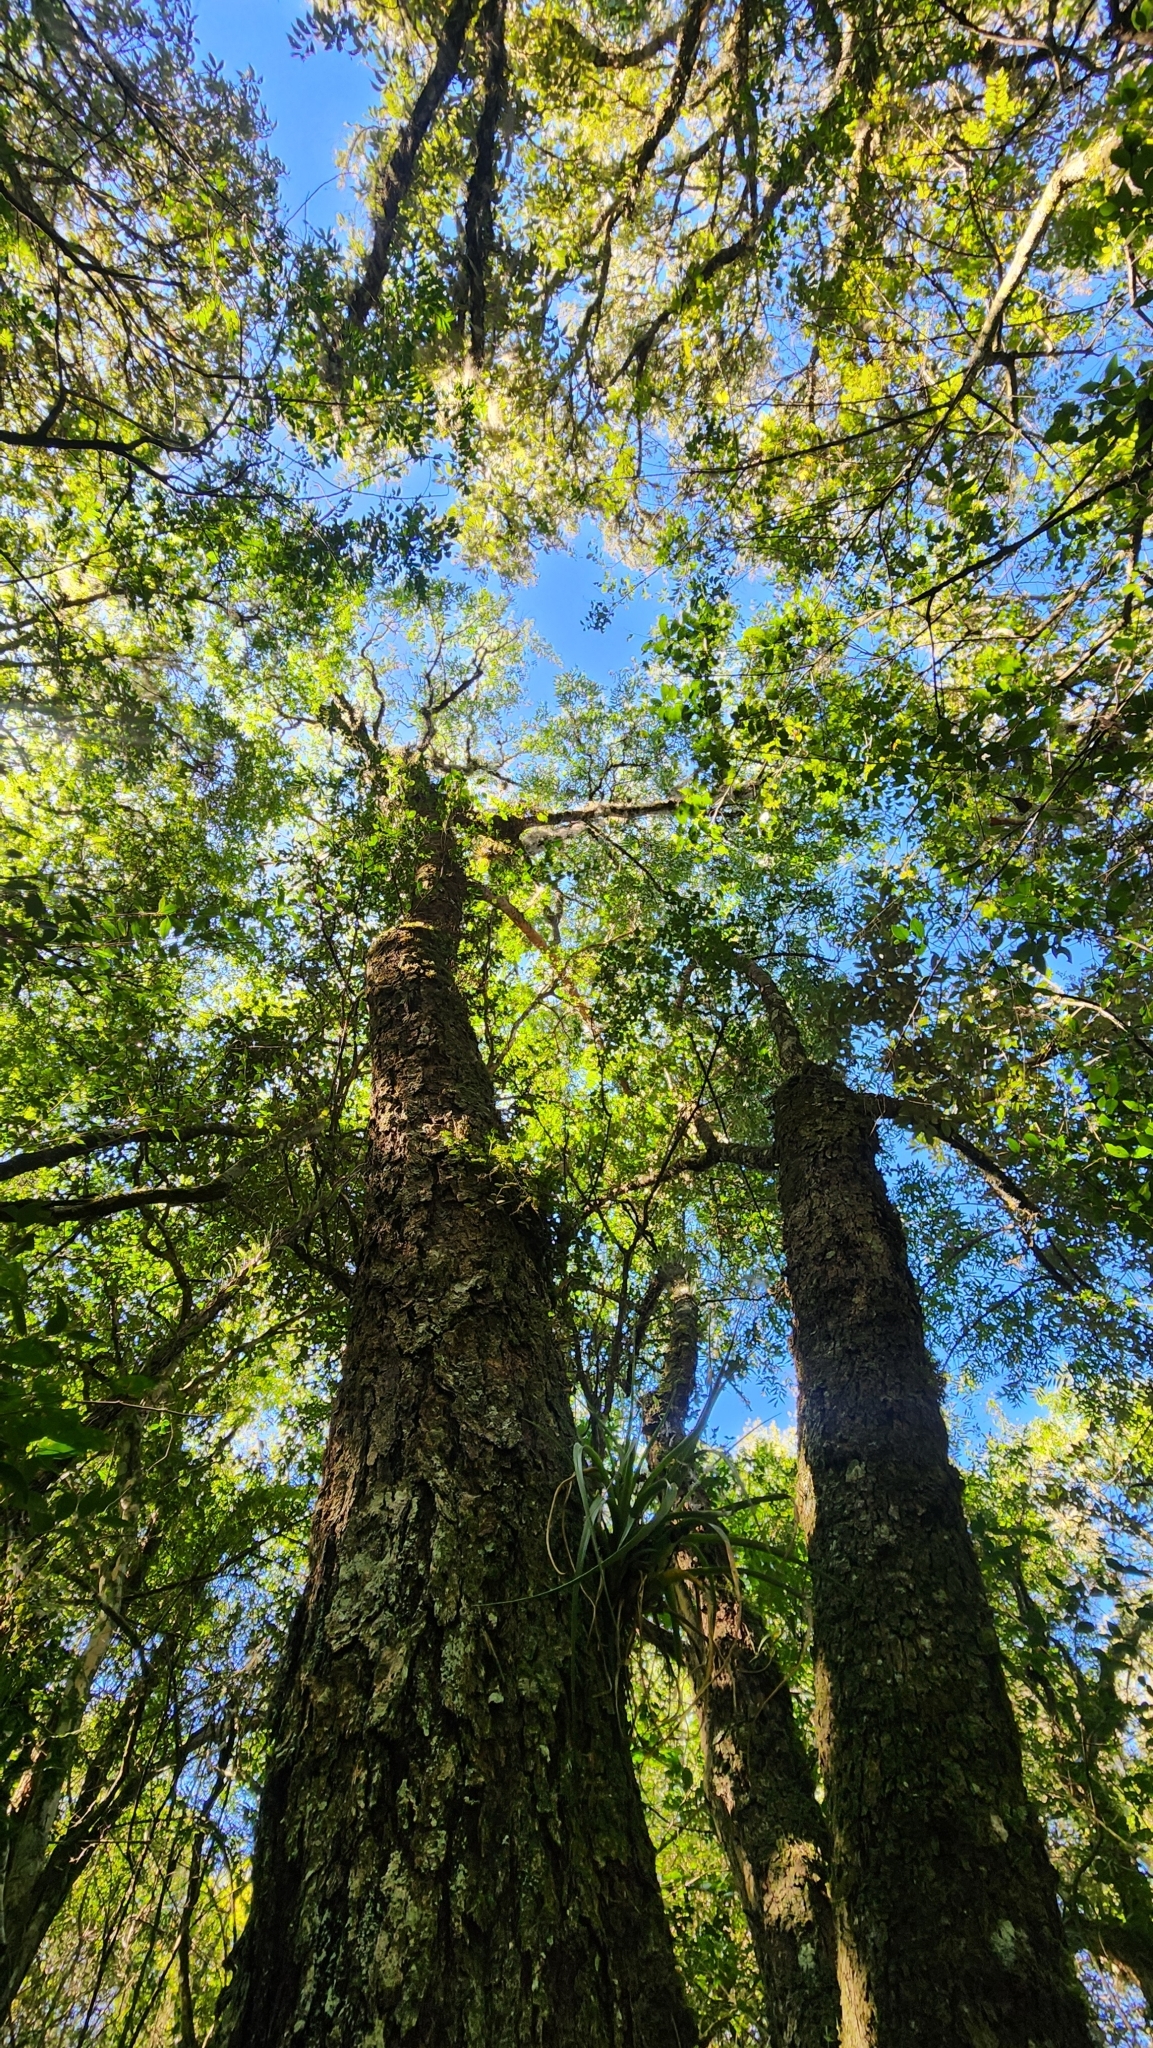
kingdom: Plantae
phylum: Tracheophyta
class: Magnoliopsida
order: Asterales
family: Asteraceae
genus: Dasyphyllum
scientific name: Dasyphyllum spinescens
